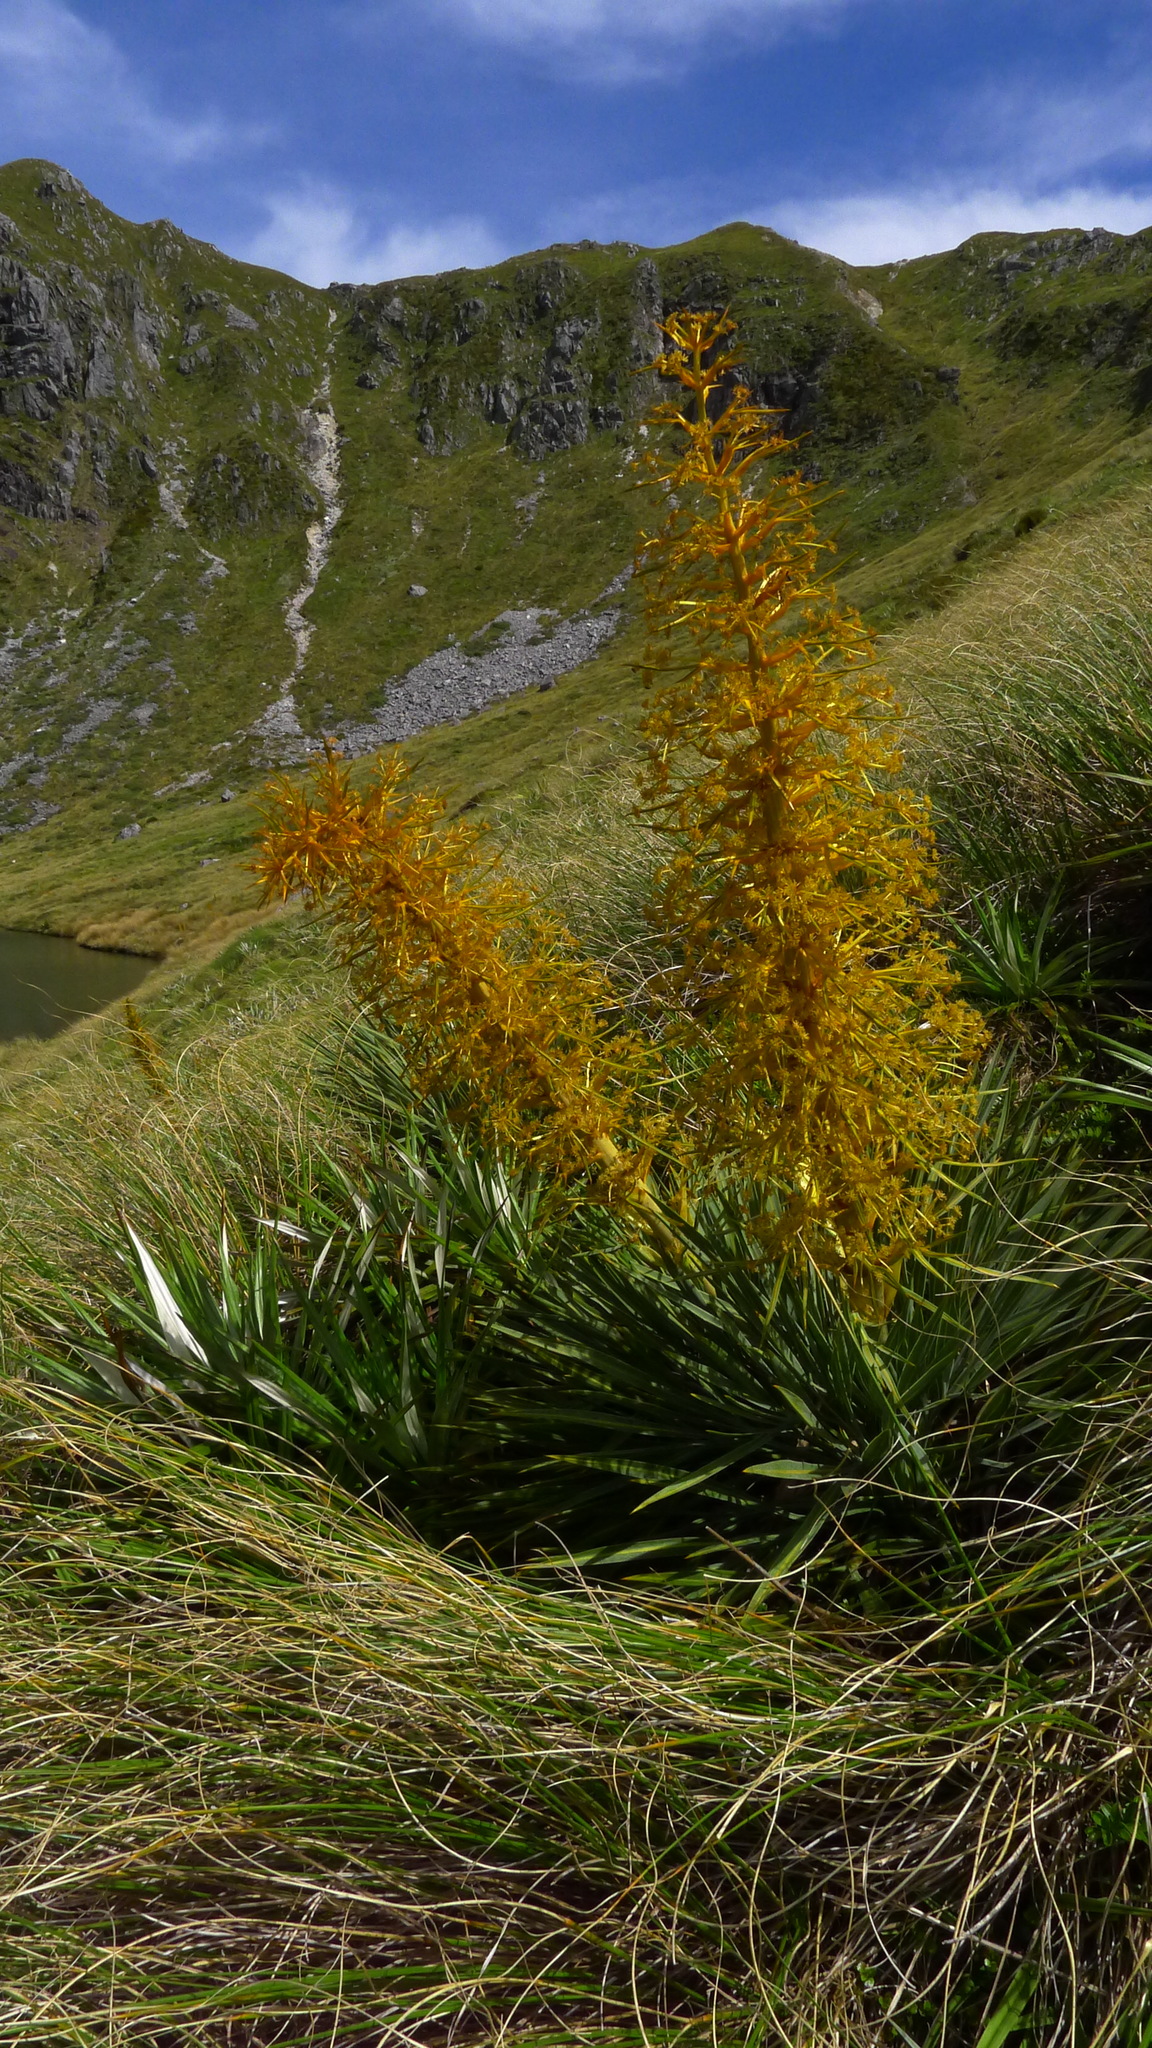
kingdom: Plantae
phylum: Tracheophyta
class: Magnoliopsida
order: Apiales
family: Apiaceae
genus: Aciphylla
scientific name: Aciphylla colensoi
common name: Colenso's spaniard
